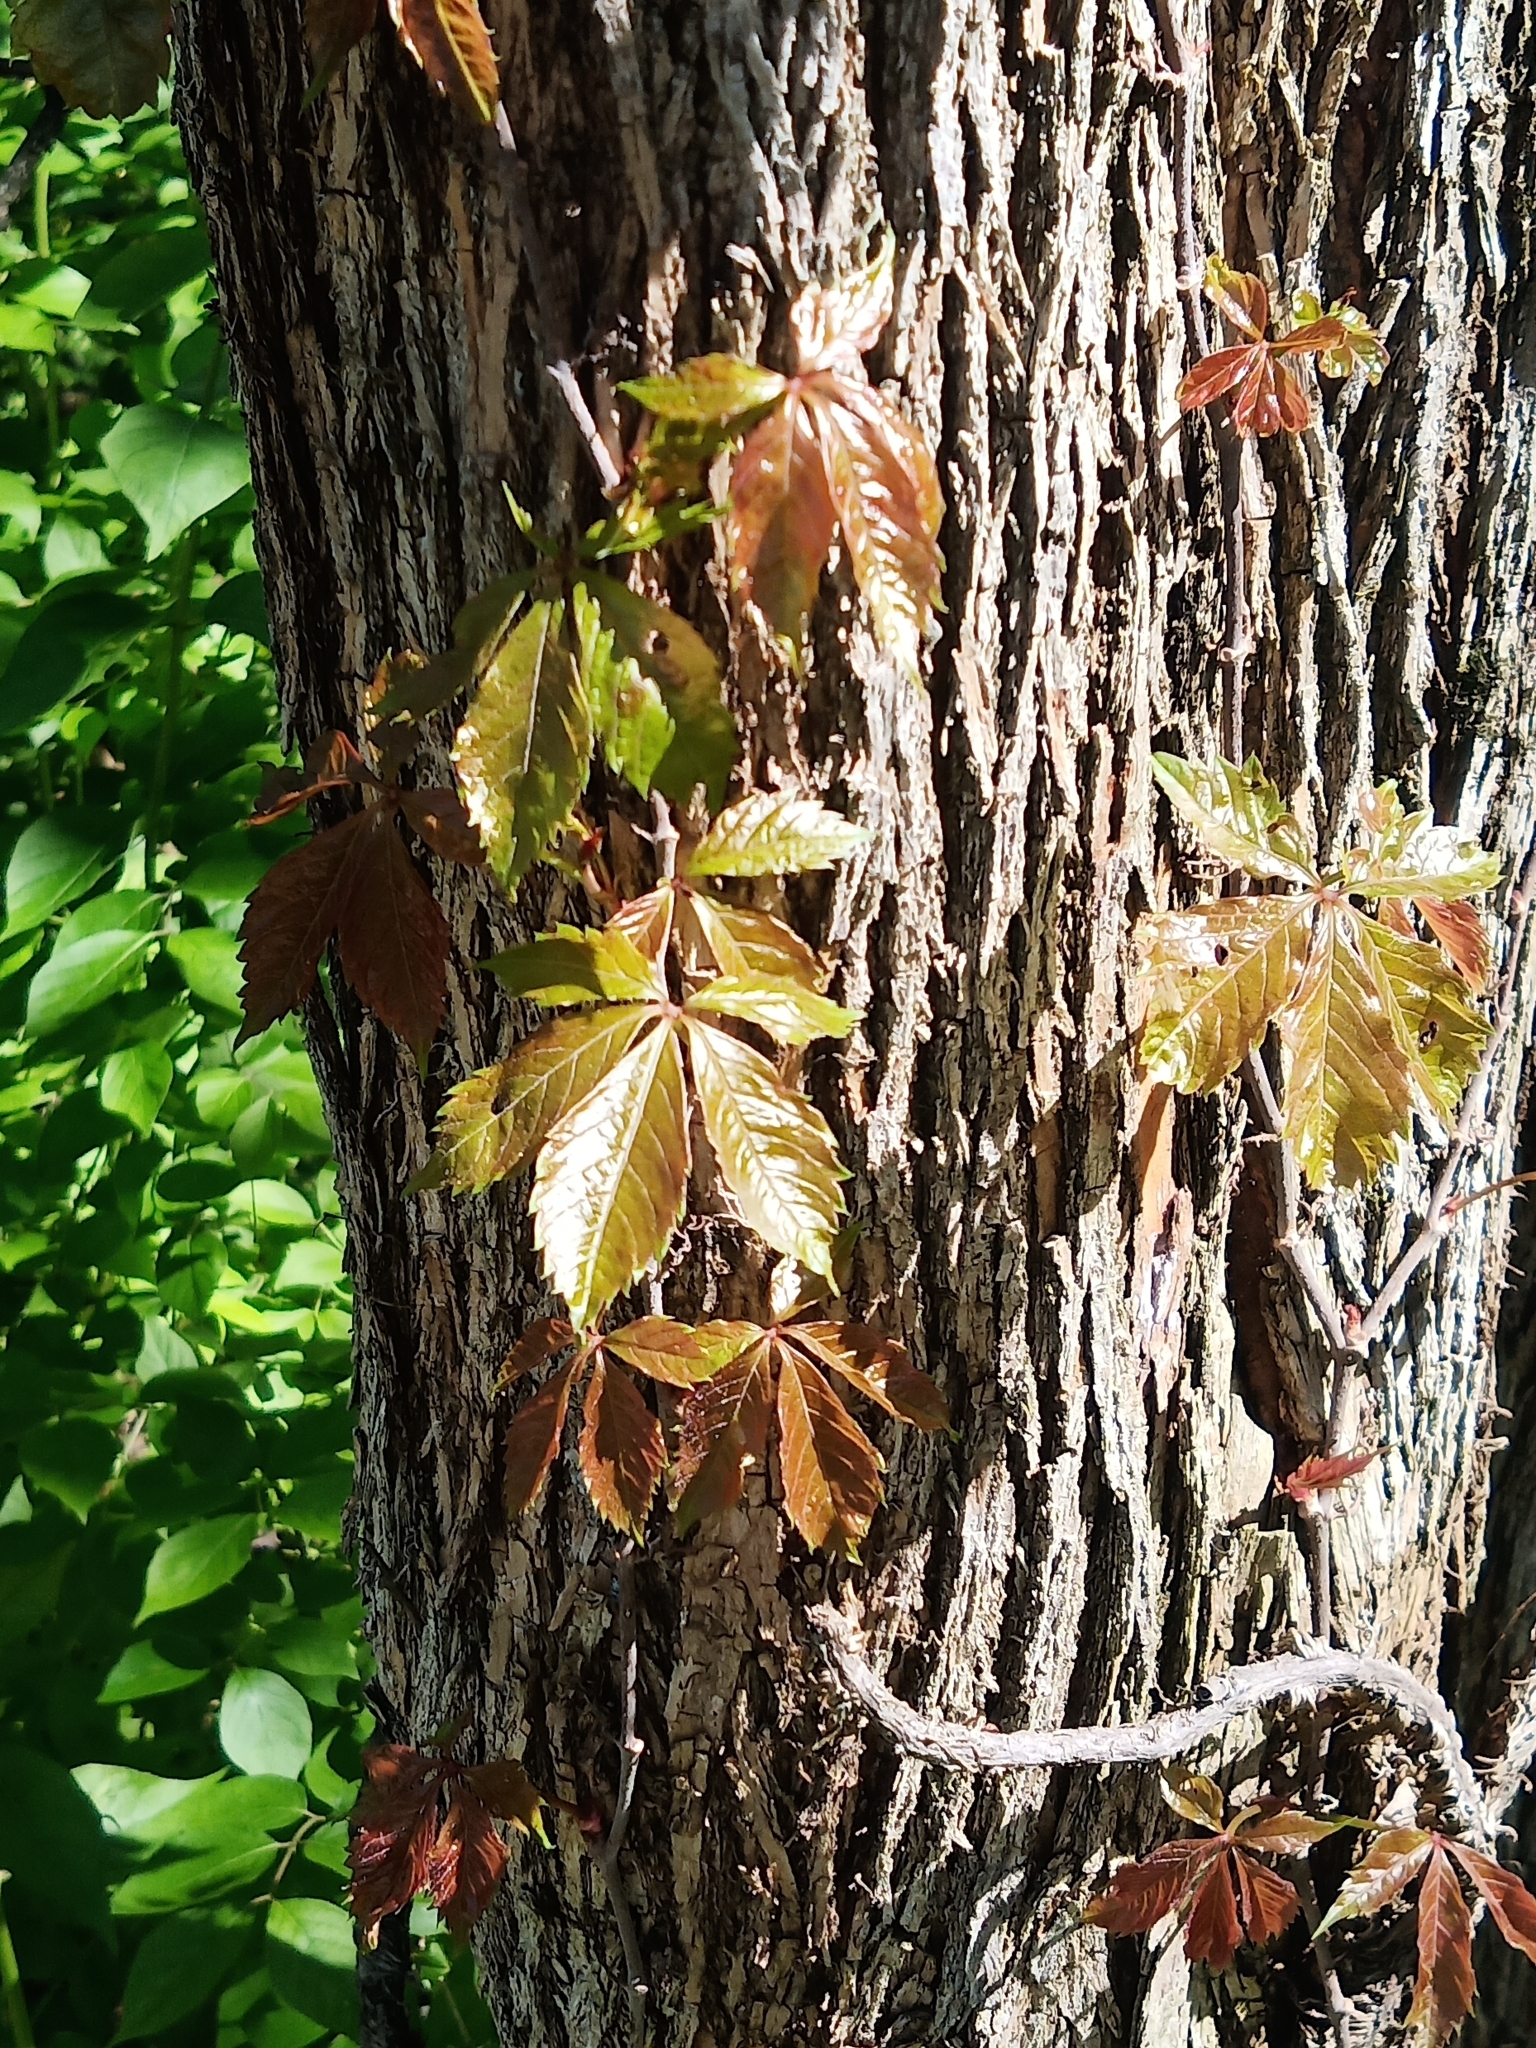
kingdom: Plantae
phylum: Tracheophyta
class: Magnoliopsida
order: Vitales
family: Vitaceae
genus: Parthenocissus
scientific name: Parthenocissus quinquefolia
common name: Virginia-creeper
